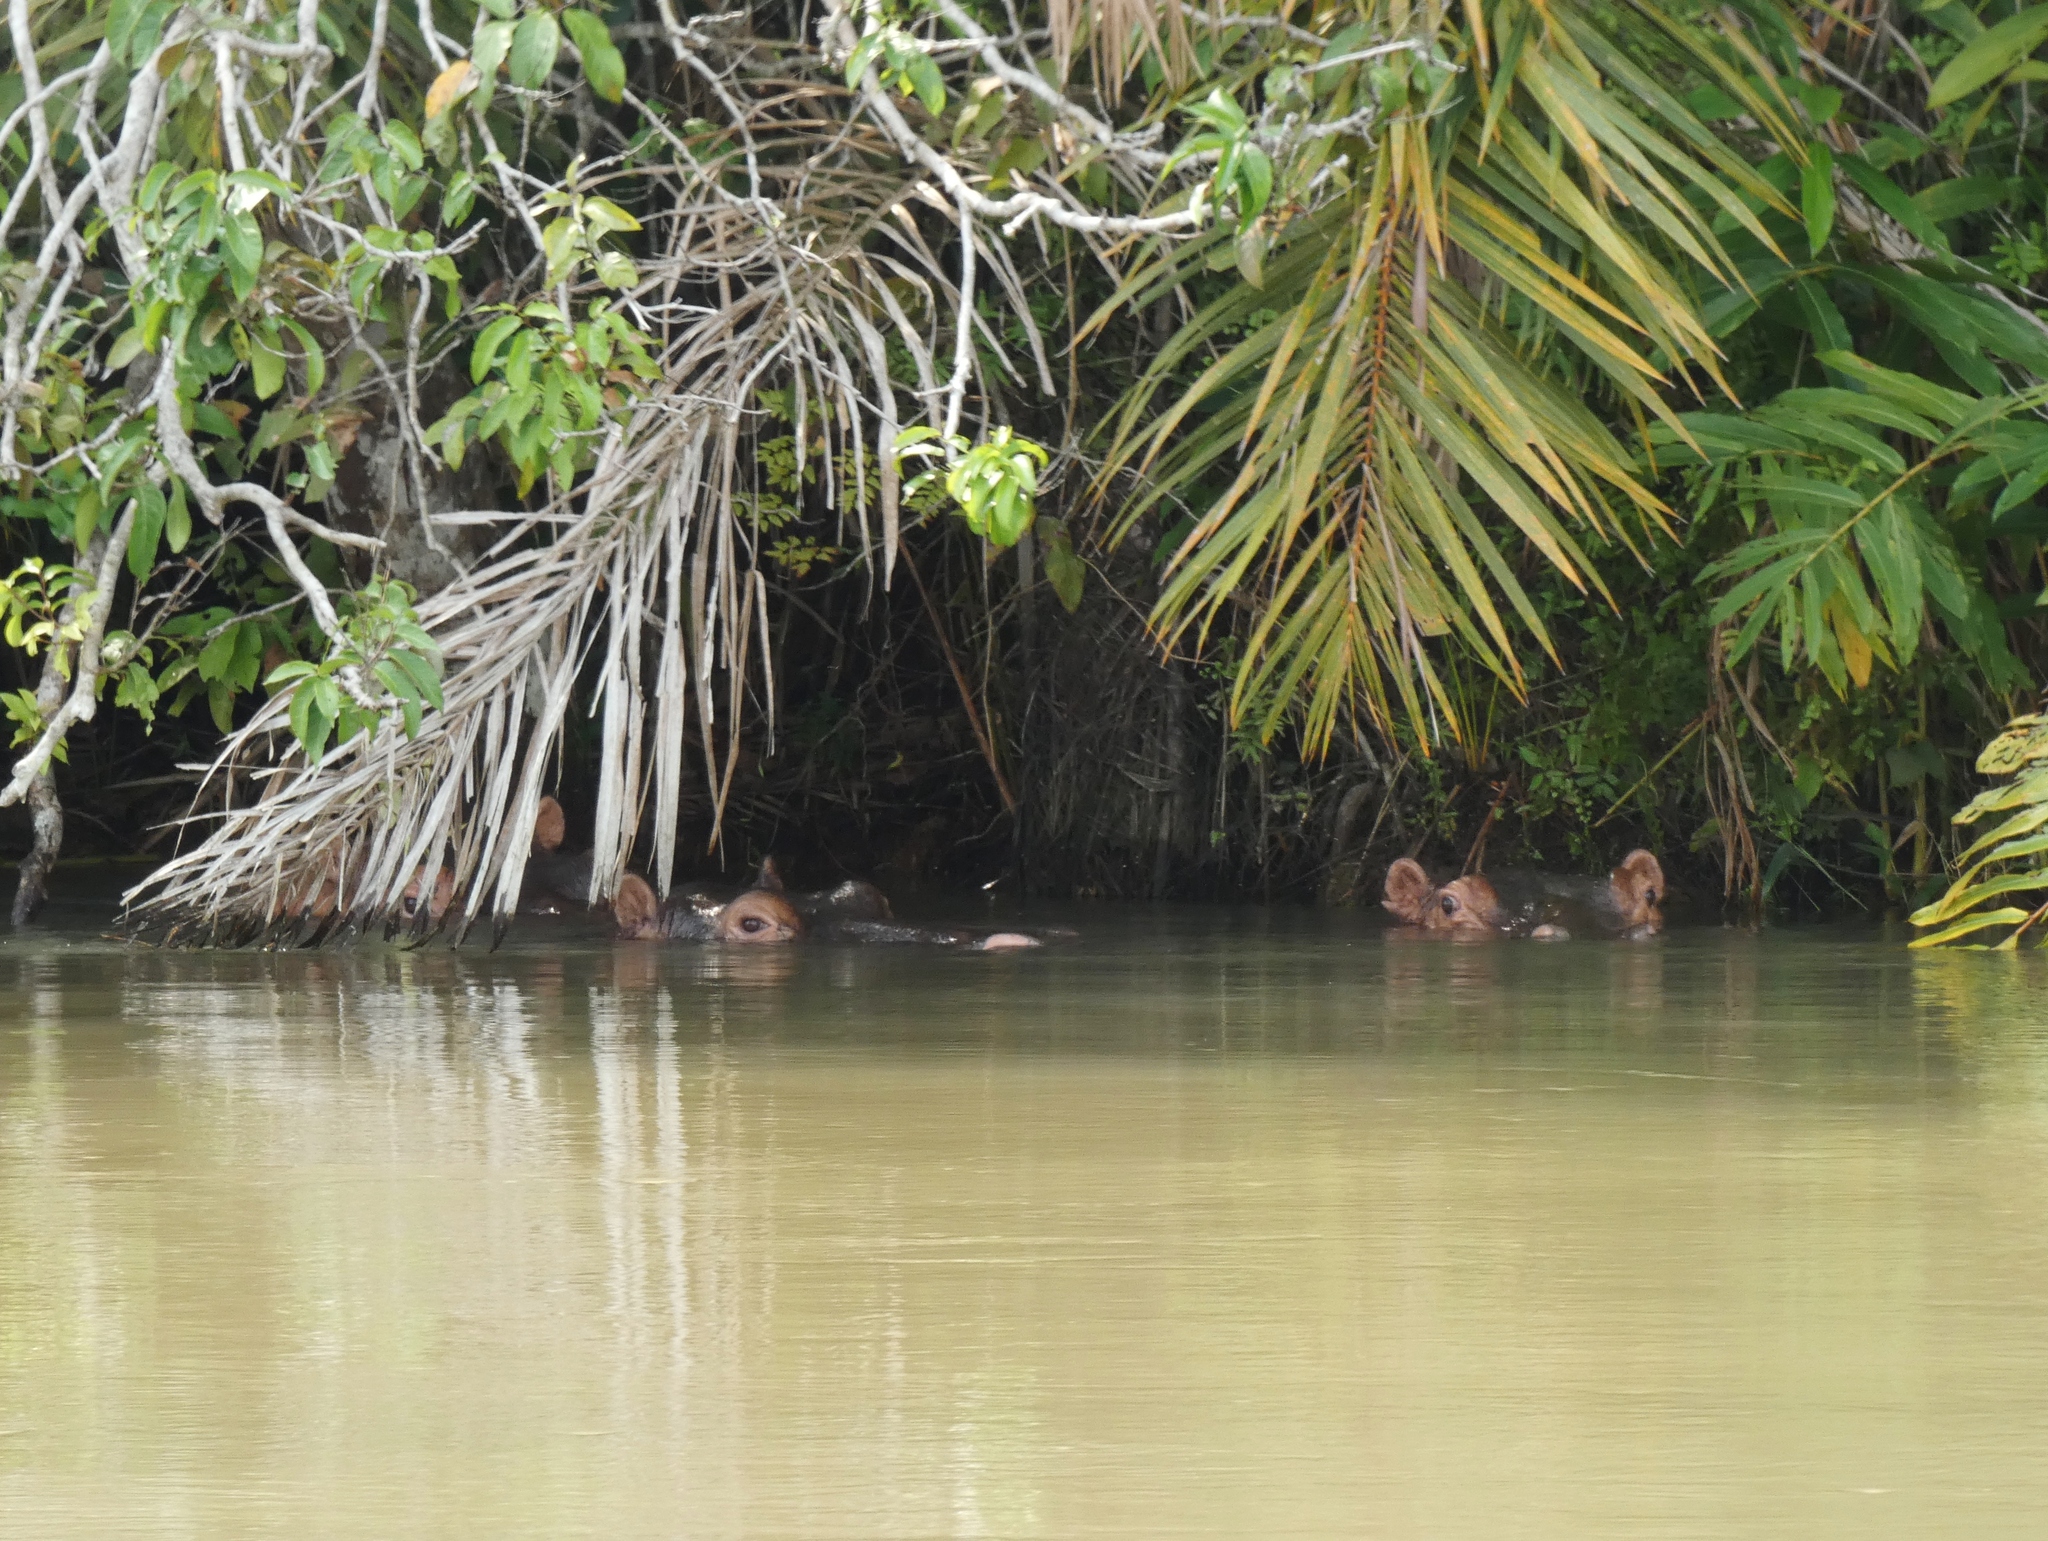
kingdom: Animalia
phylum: Chordata
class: Mammalia
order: Artiodactyla
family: Hippopotamidae
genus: Hippopotamus
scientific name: Hippopotamus amphibius
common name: Common hippopotamus
